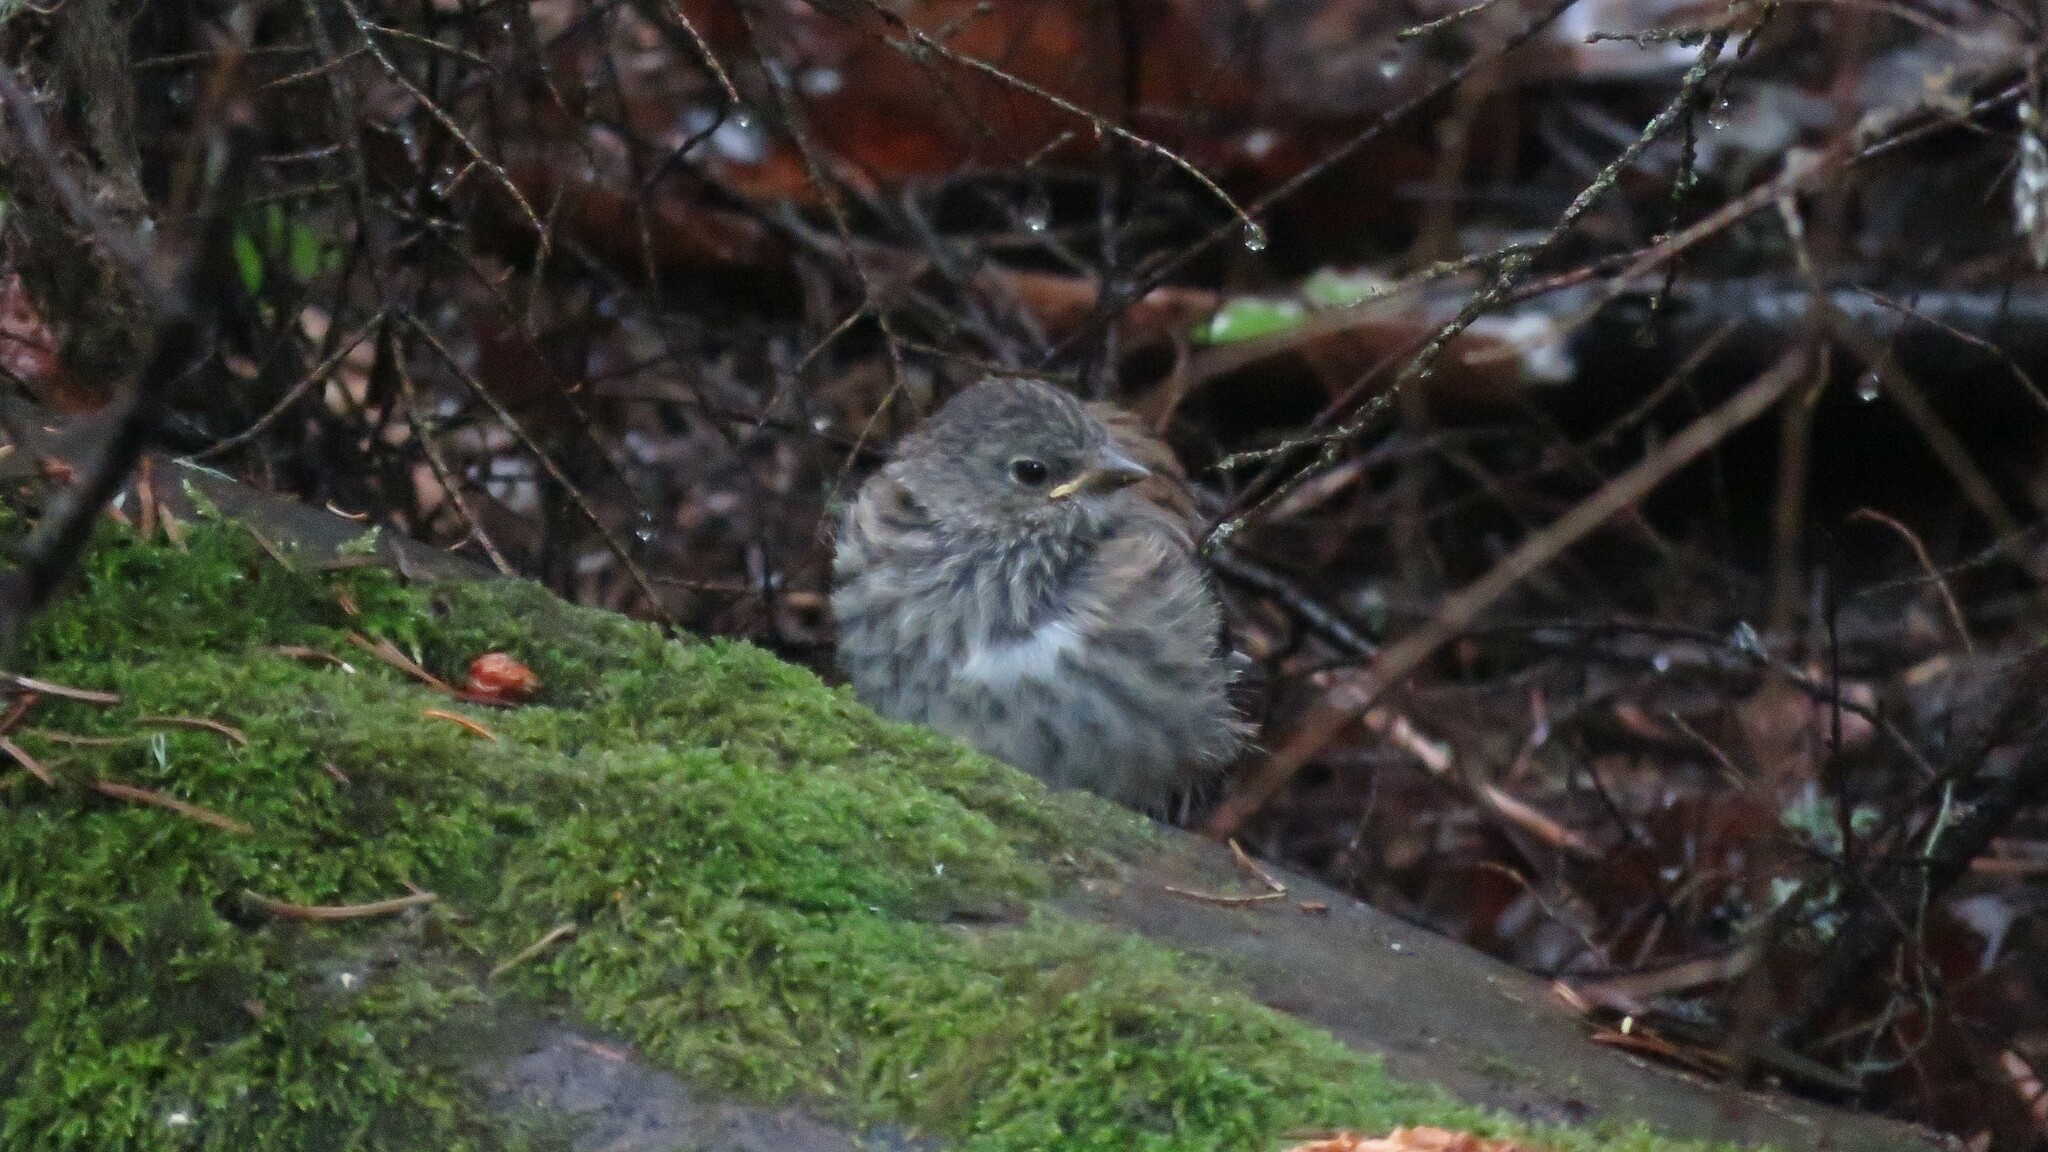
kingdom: Animalia
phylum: Chordata
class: Aves
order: Passeriformes
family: Passerellidae
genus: Junco
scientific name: Junco hyemalis
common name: Dark-eyed junco
